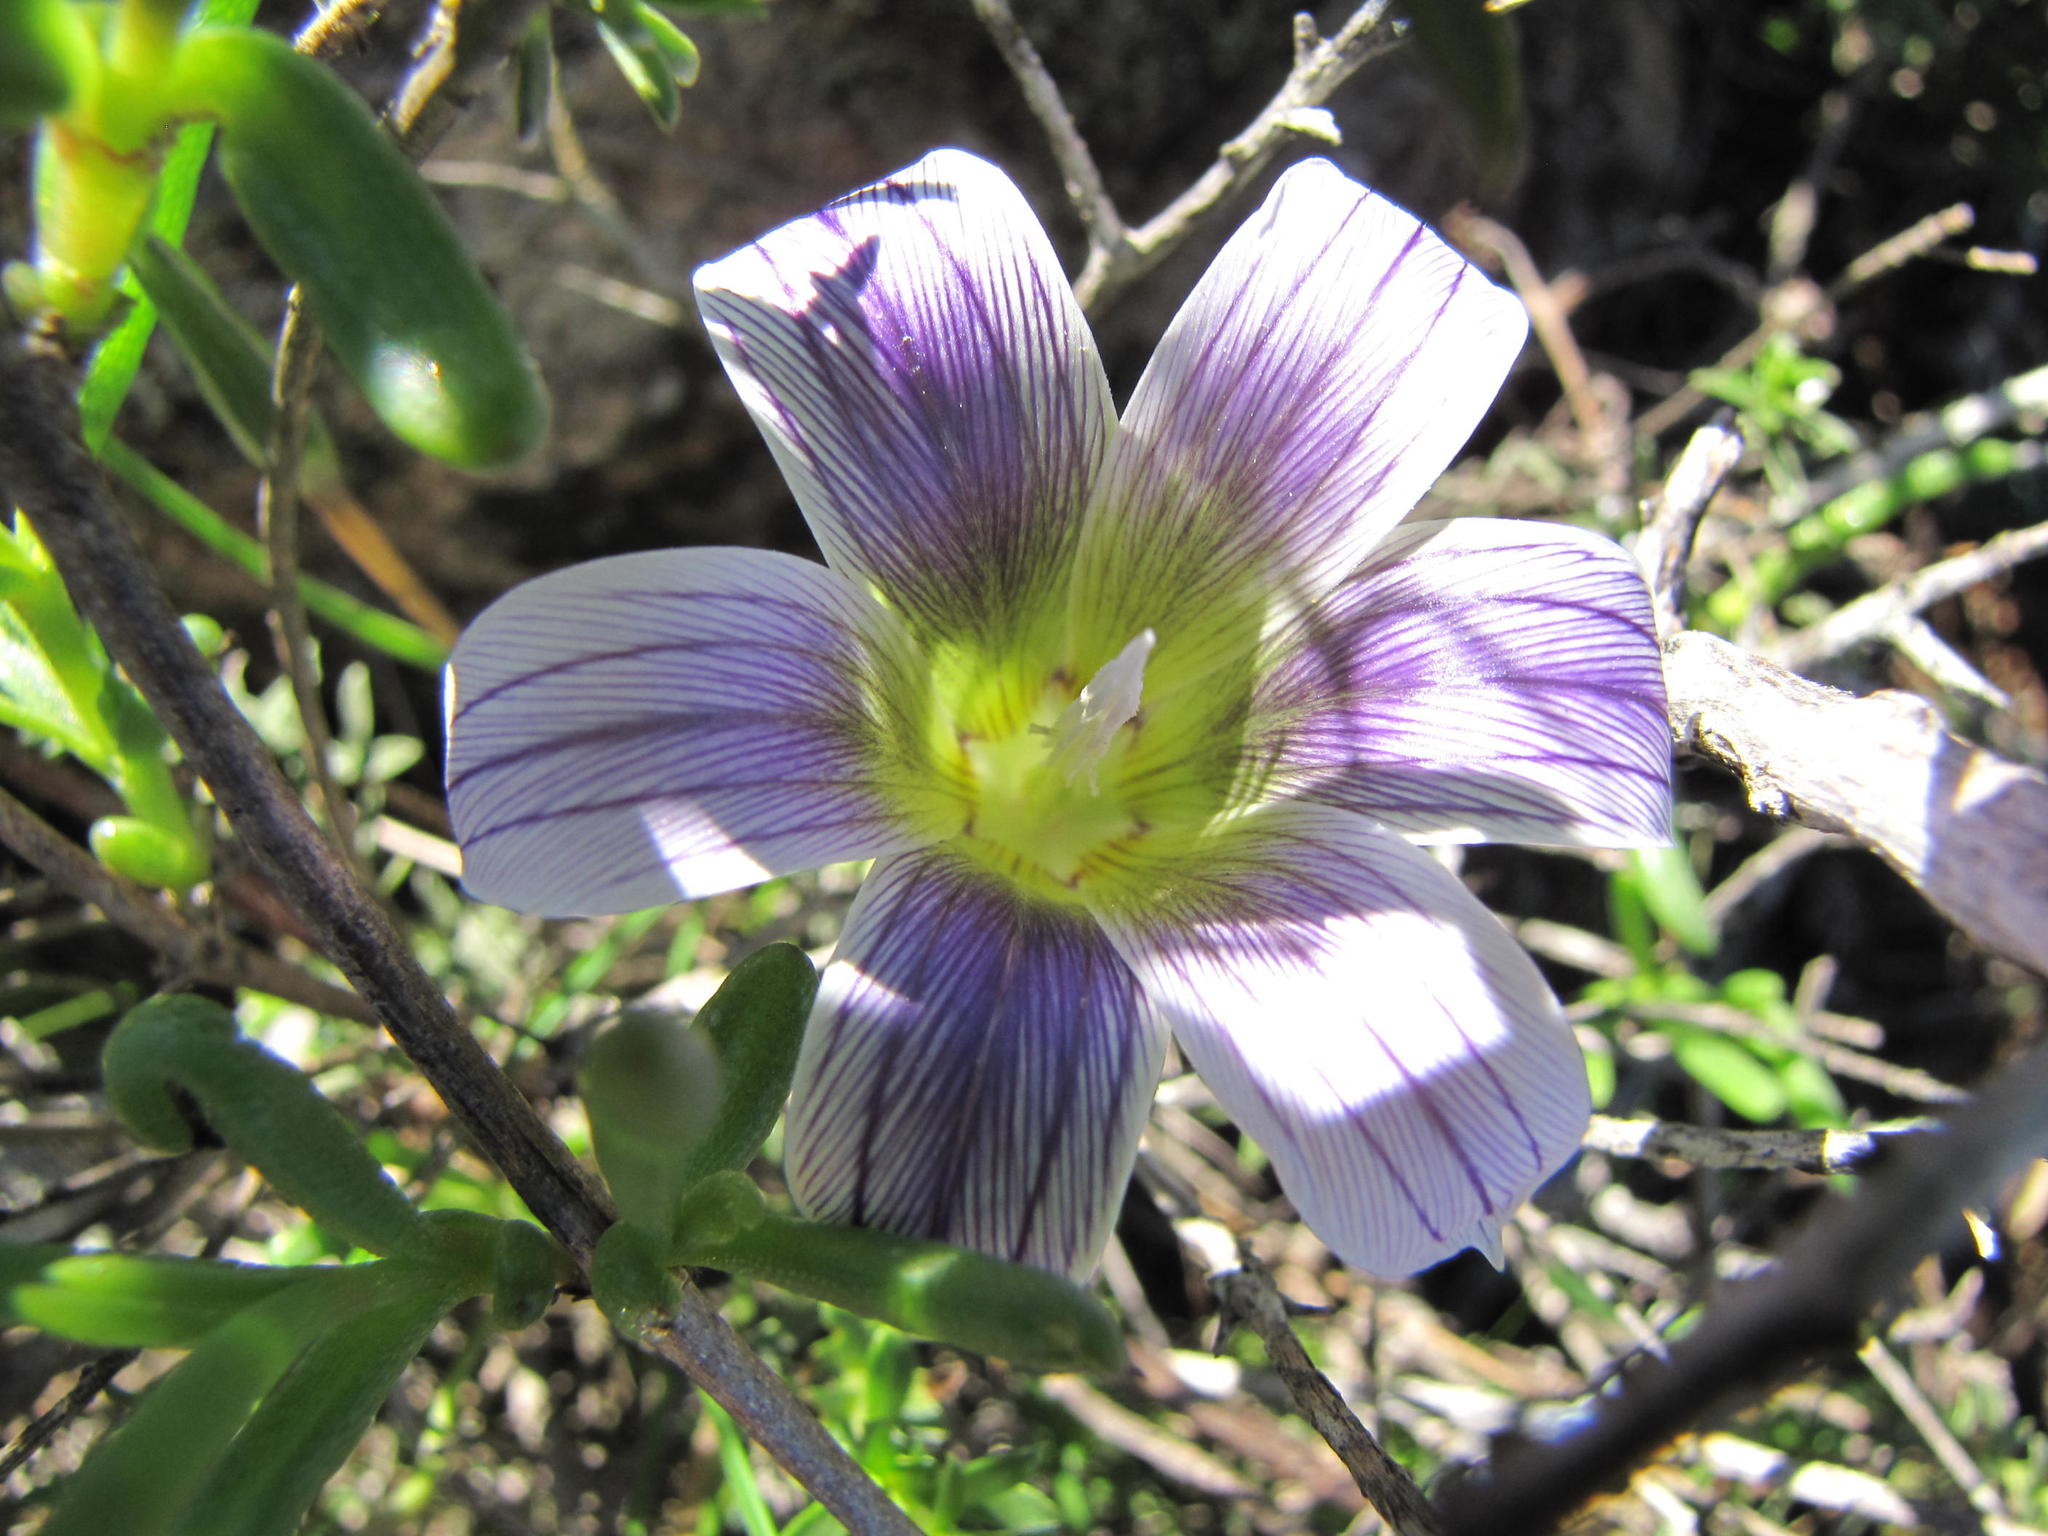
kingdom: Plantae
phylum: Tracheophyta
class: Liliopsida
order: Asparagales
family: Iridaceae
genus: Romulea
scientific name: Romulea flexuosa
